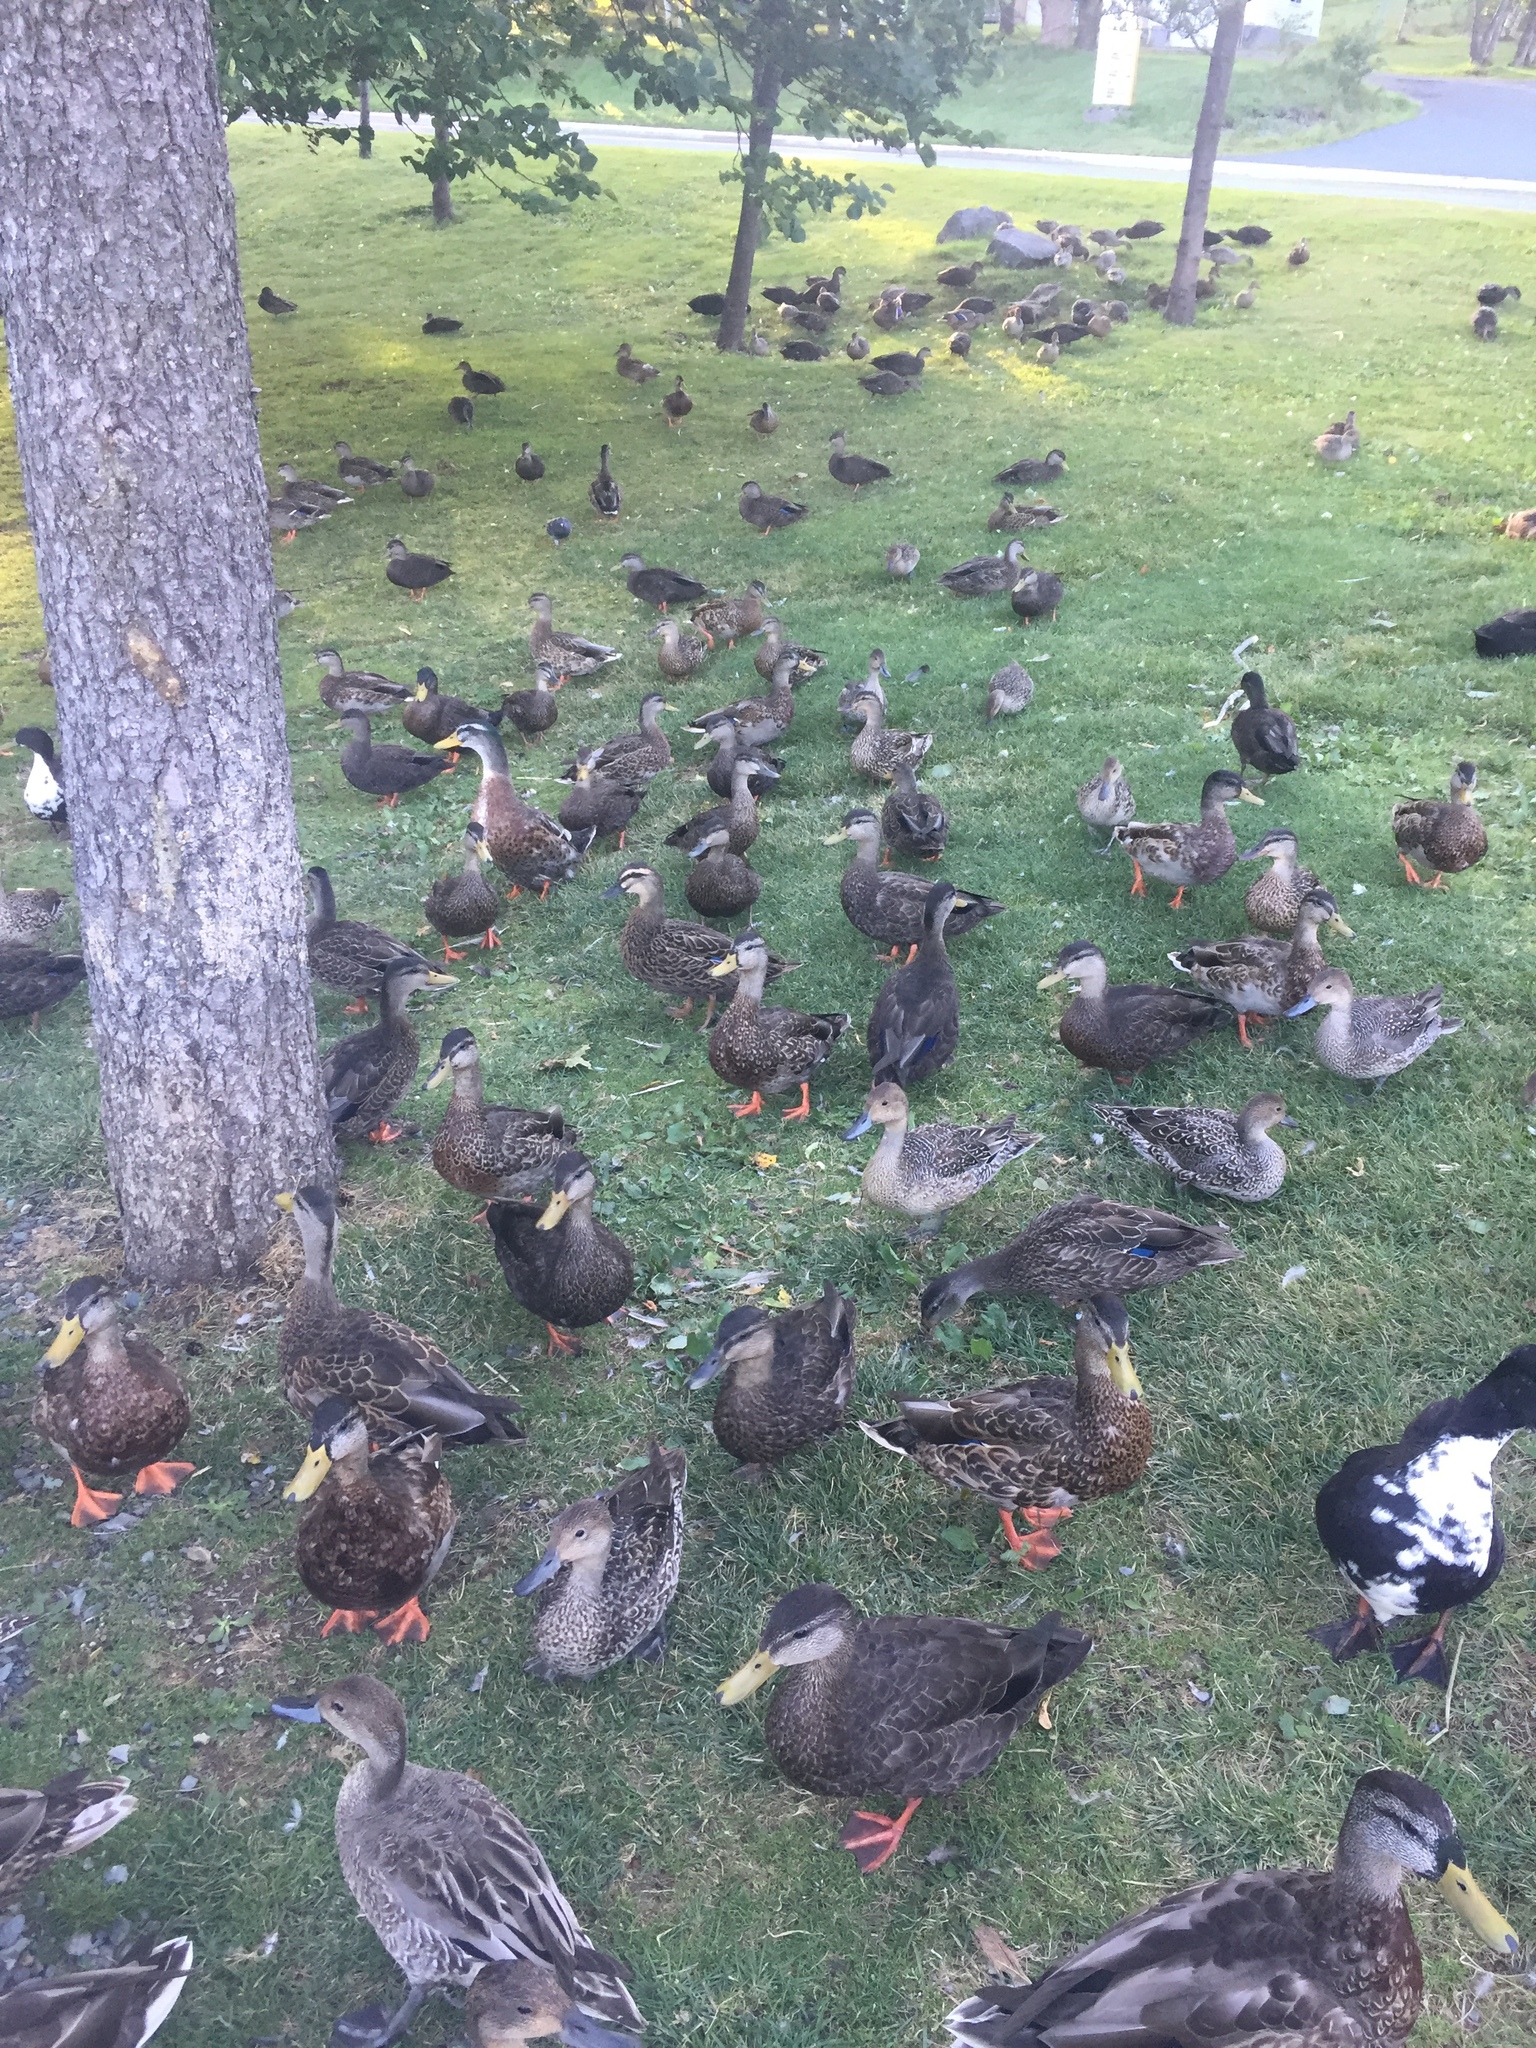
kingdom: Animalia
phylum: Chordata
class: Aves
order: Anseriformes
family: Anatidae
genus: Anas
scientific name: Anas platyrhynchos
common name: Mallard
